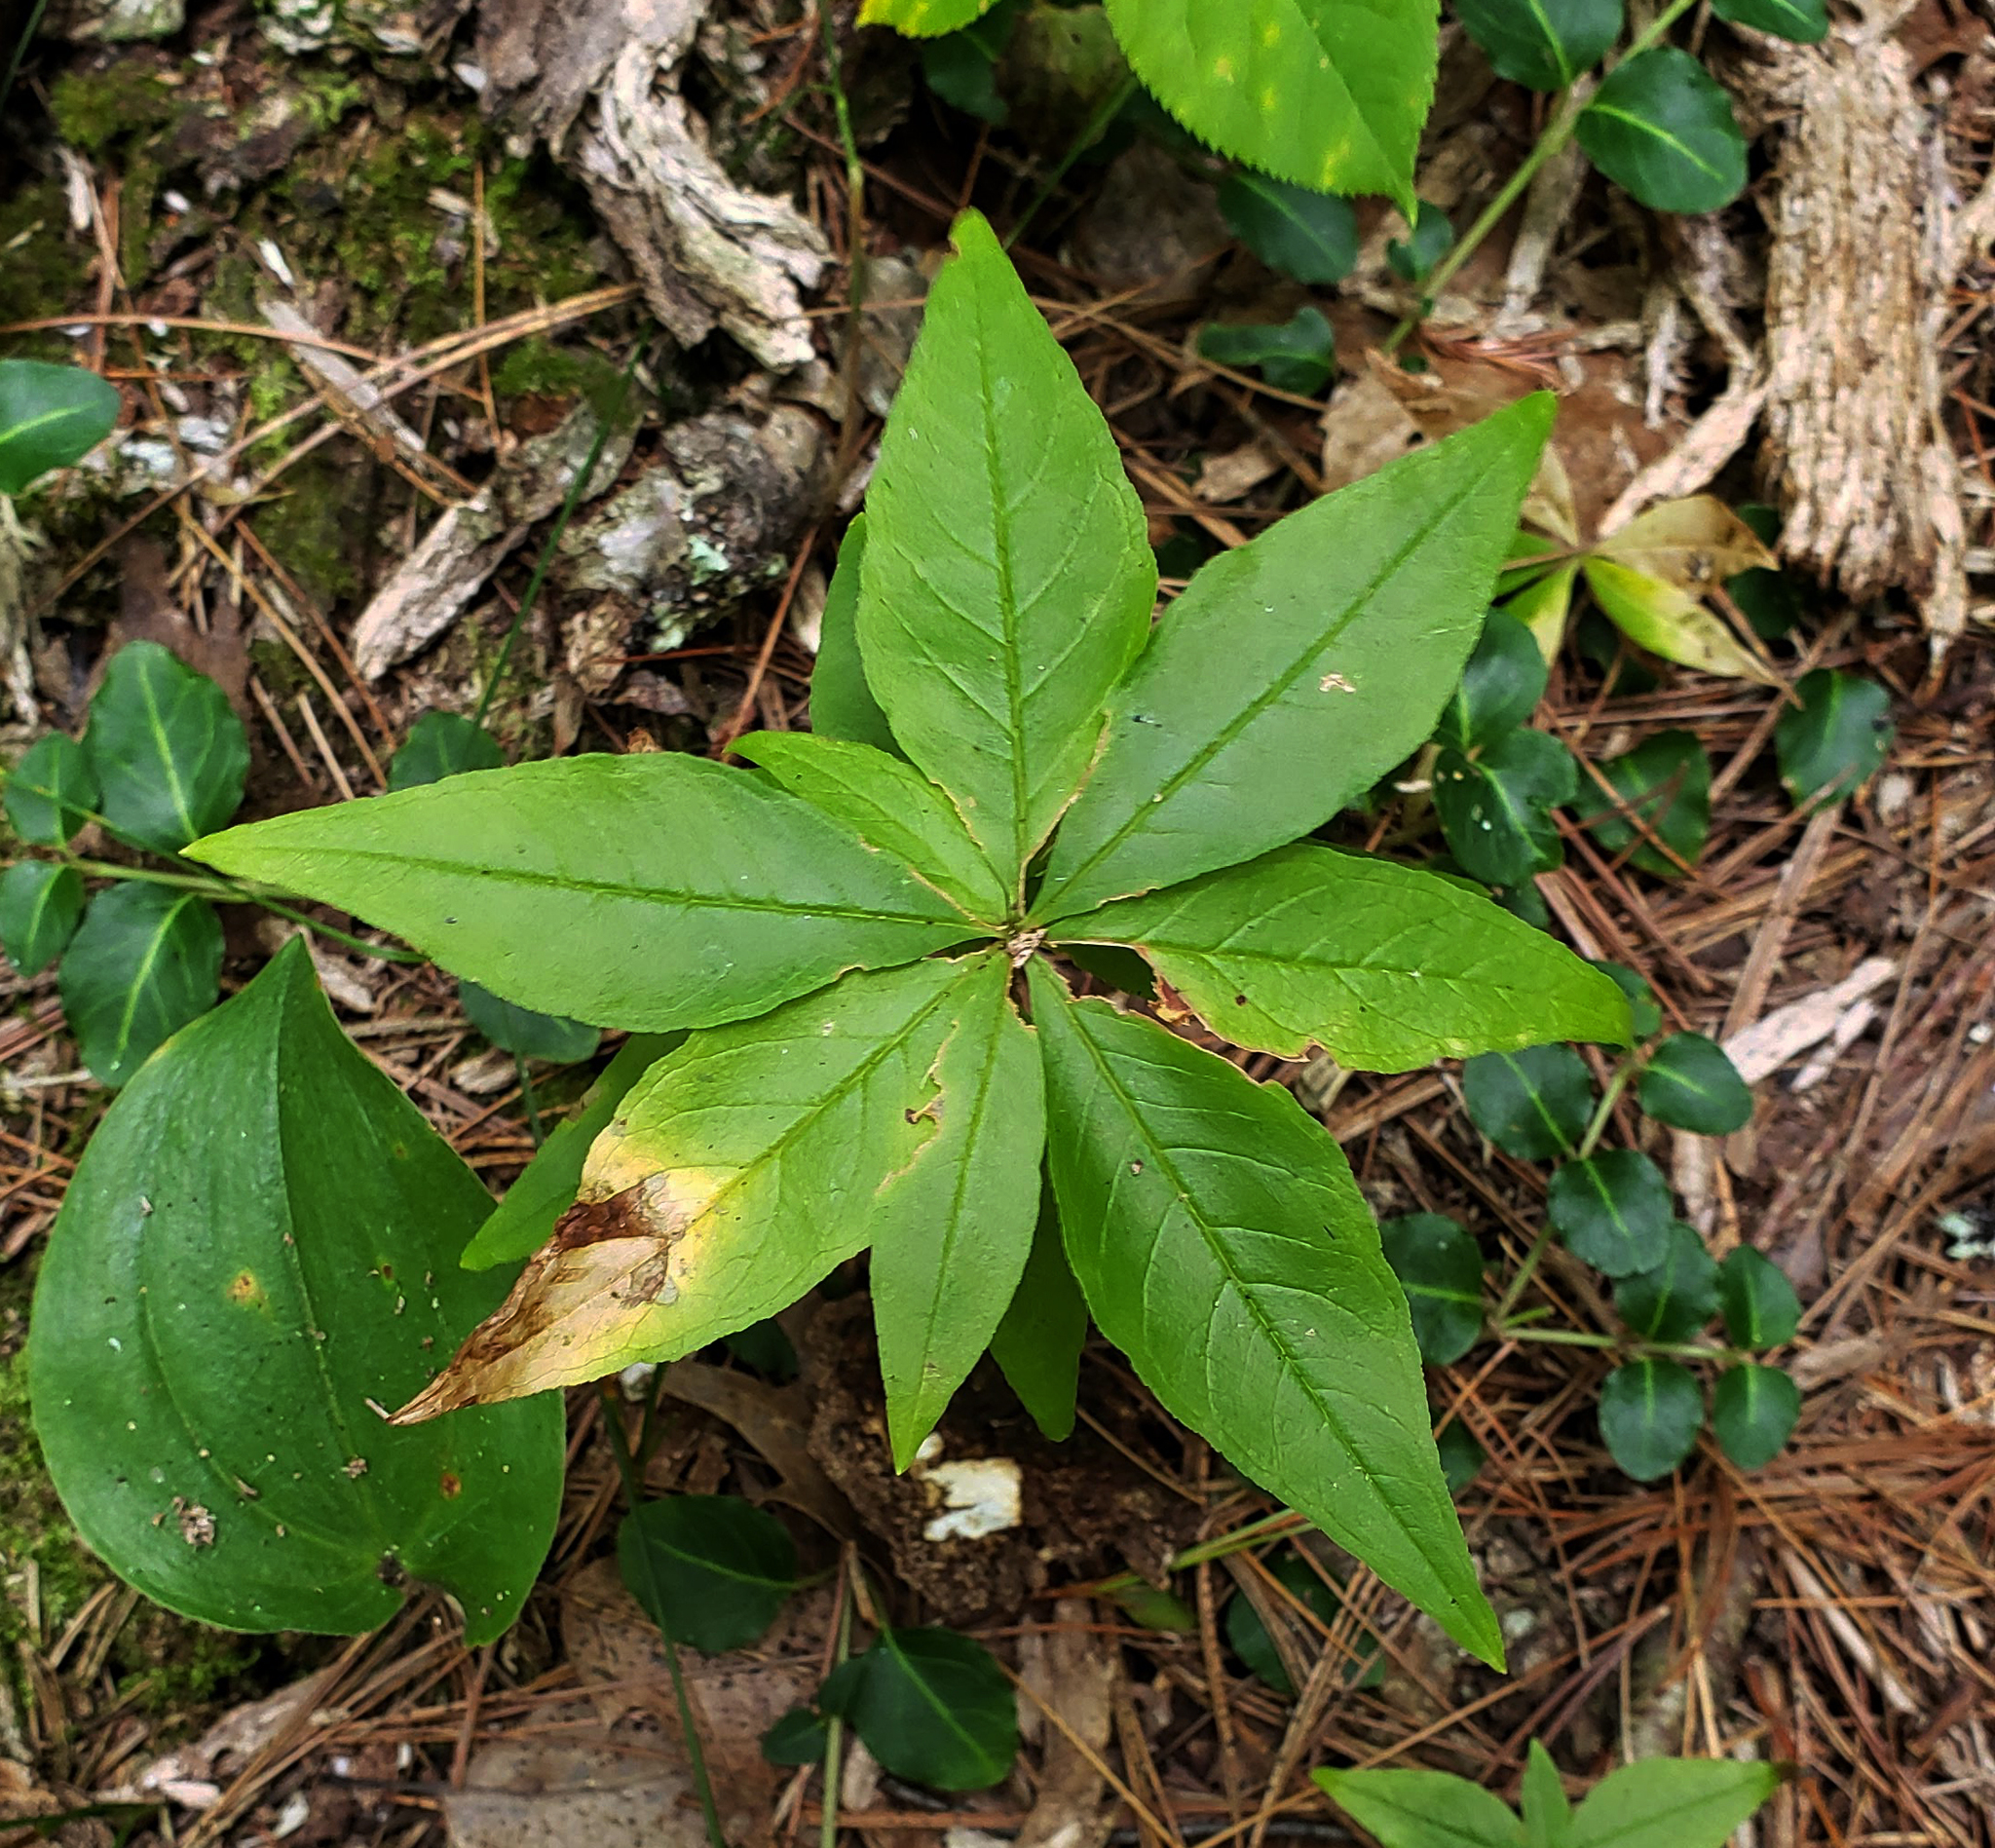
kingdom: Plantae
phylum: Tracheophyta
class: Magnoliopsida
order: Ericales
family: Primulaceae
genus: Lysimachia
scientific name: Lysimachia borealis
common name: American starflower
